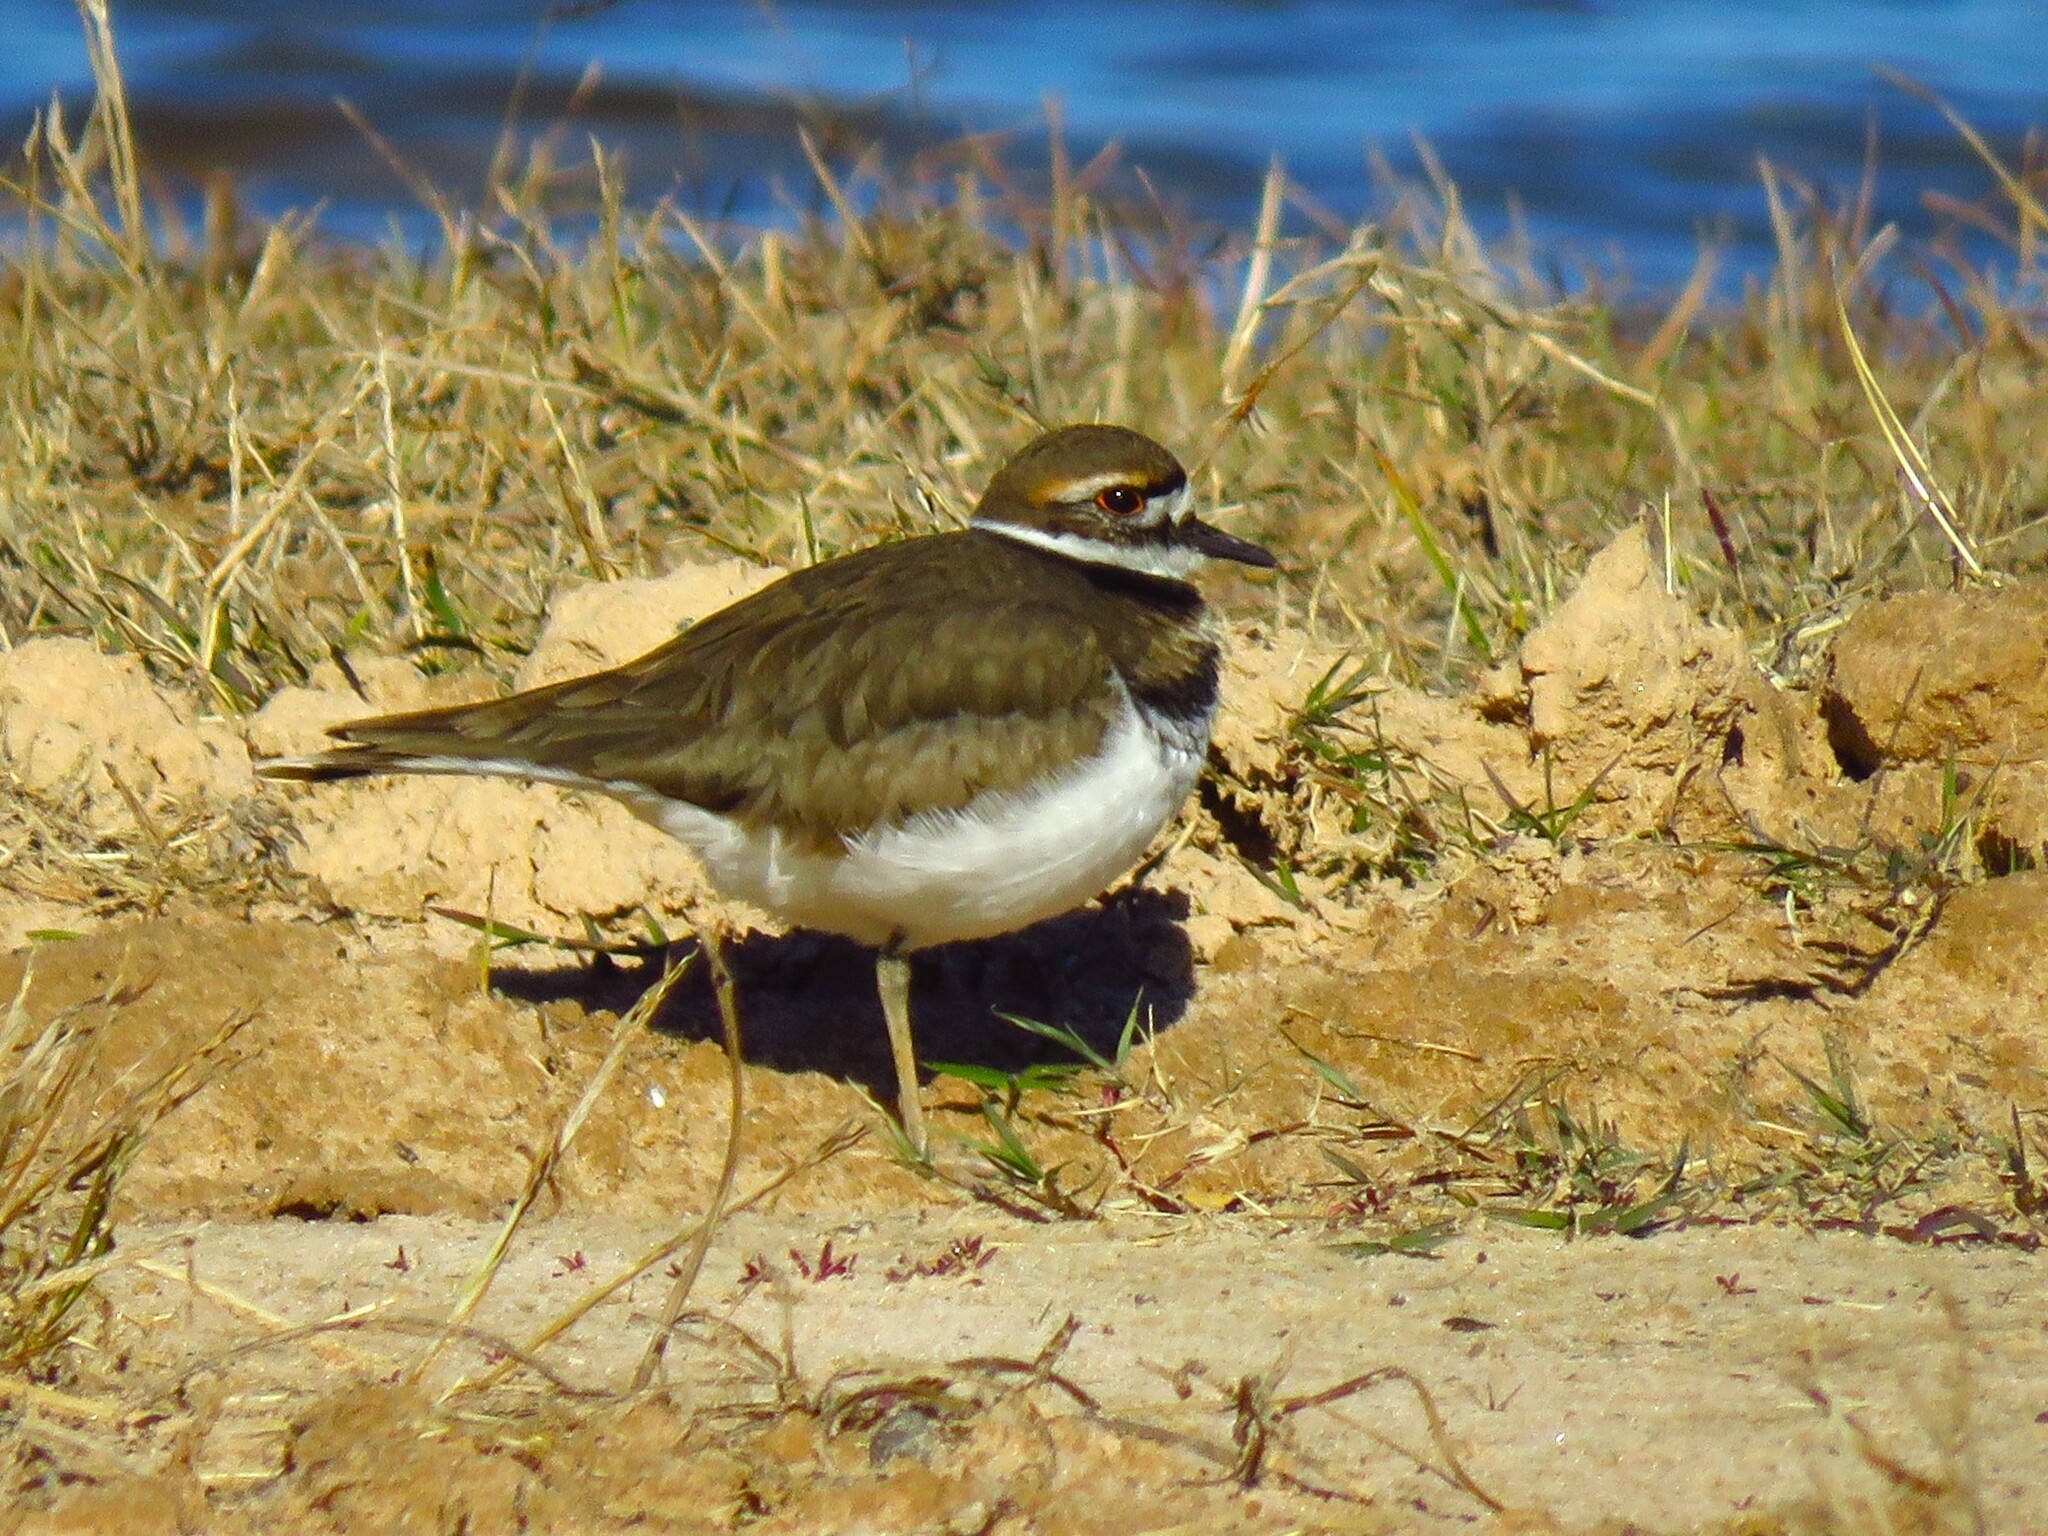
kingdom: Animalia
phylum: Chordata
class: Aves
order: Charadriiformes
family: Charadriidae
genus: Charadrius
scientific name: Charadrius vociferus
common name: Killdeer
